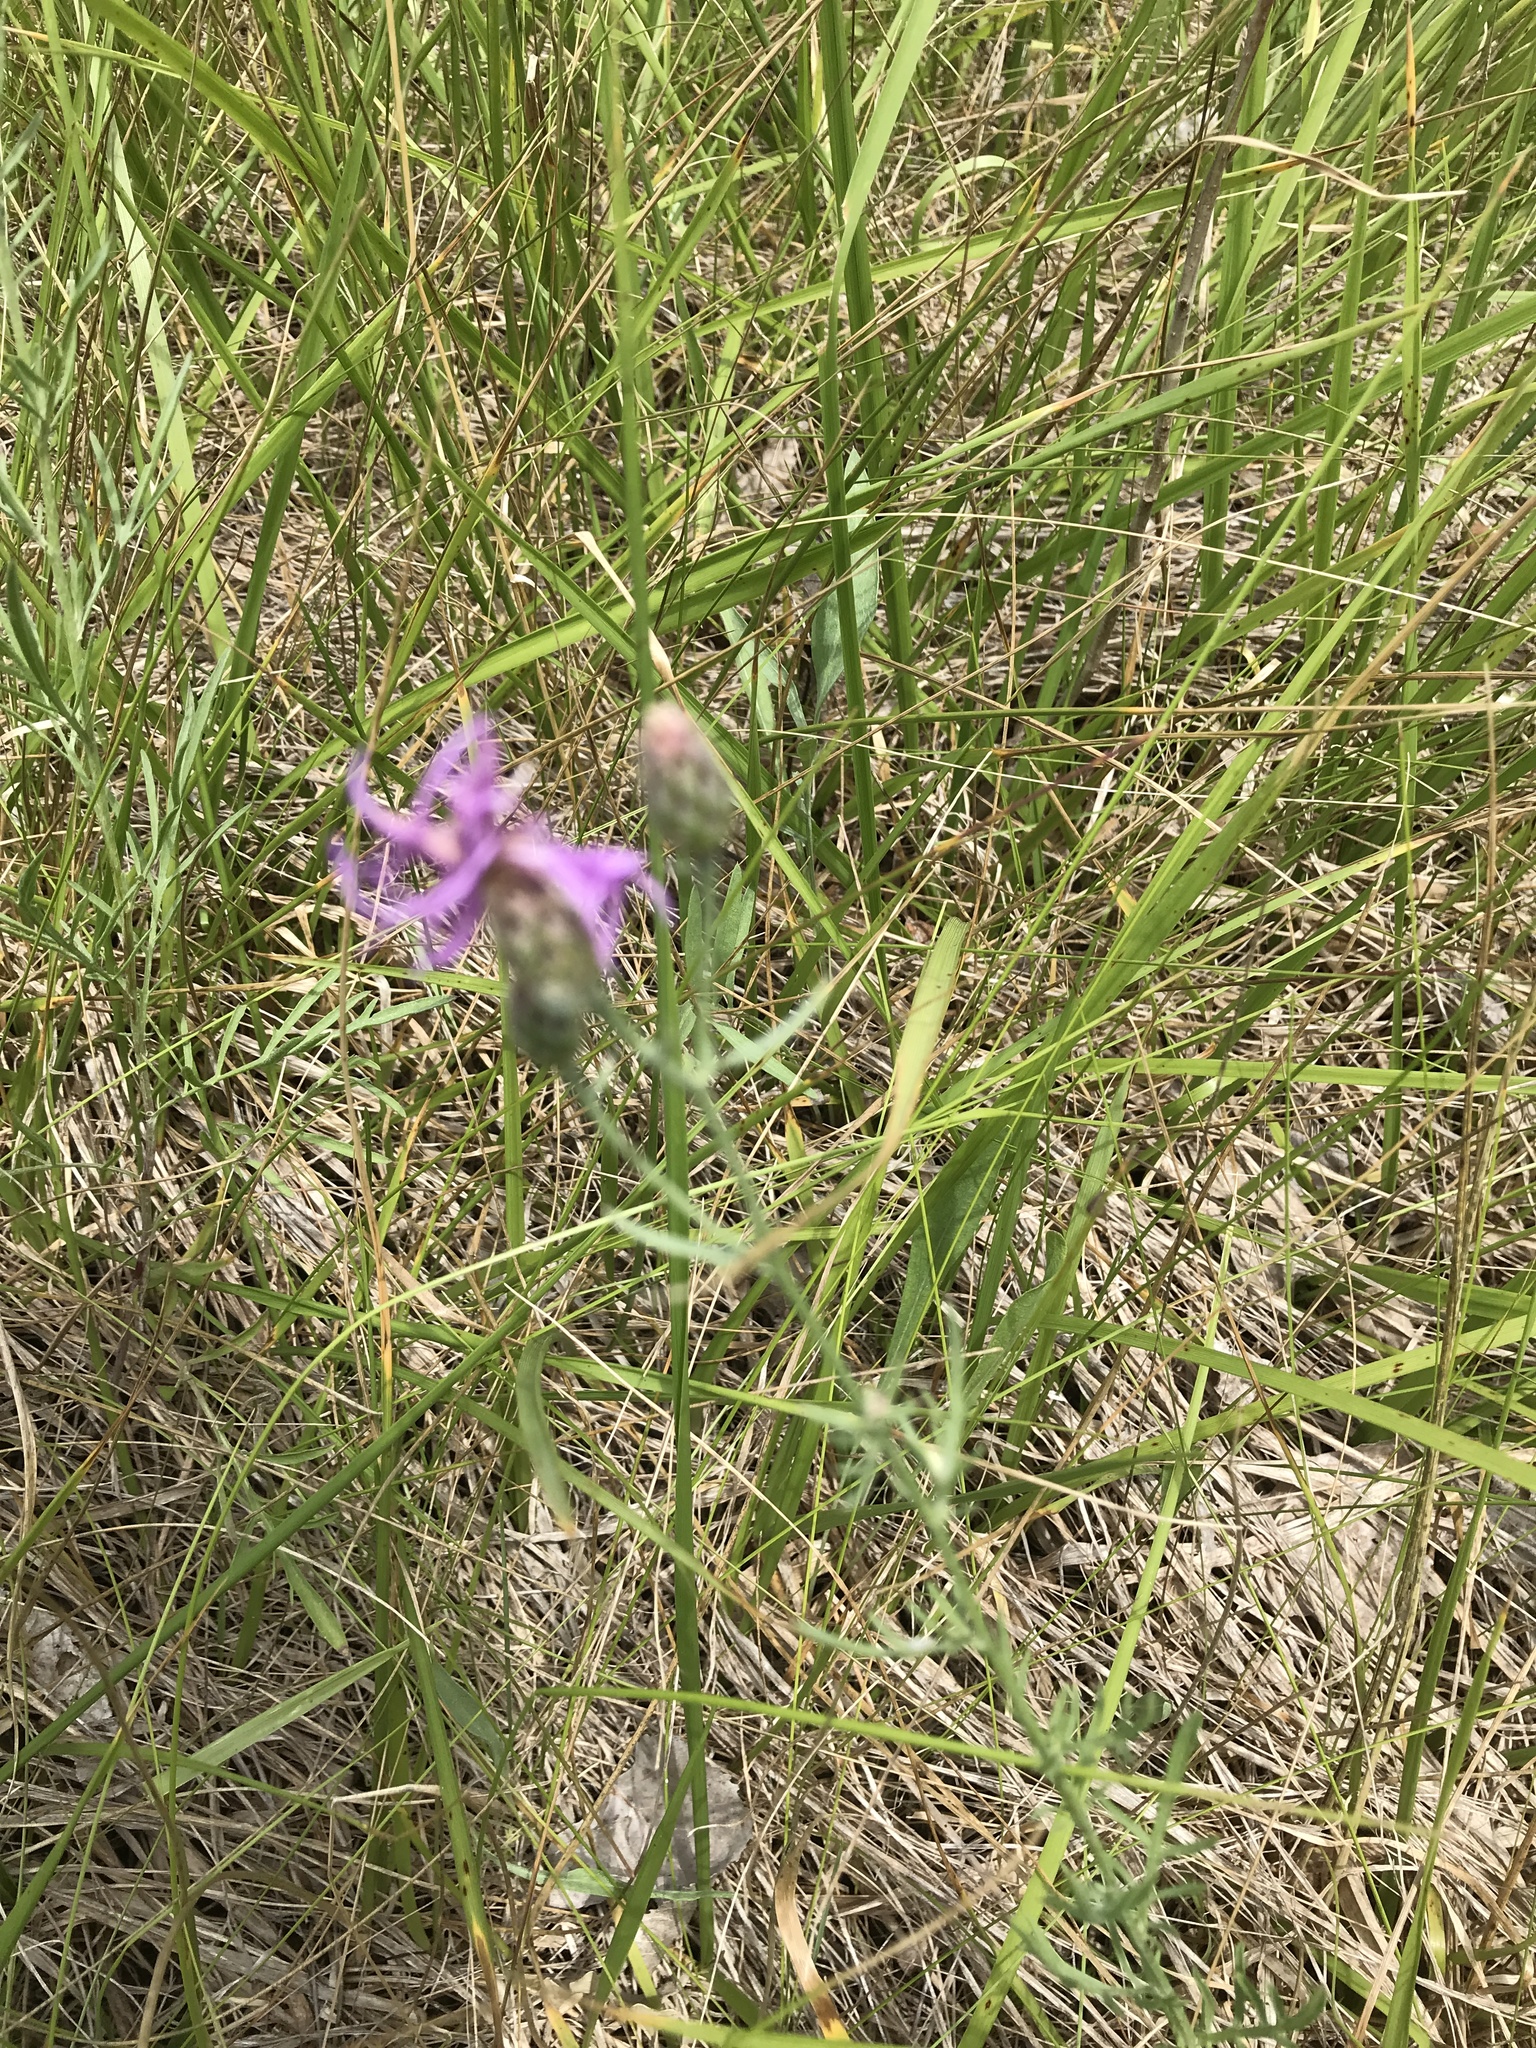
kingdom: Plantae
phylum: Tracheophyta
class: Magnoliopsida
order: Asterales
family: Asteraceae
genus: Centaurea
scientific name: Centaurea stoebe
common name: Spotted knapweed
